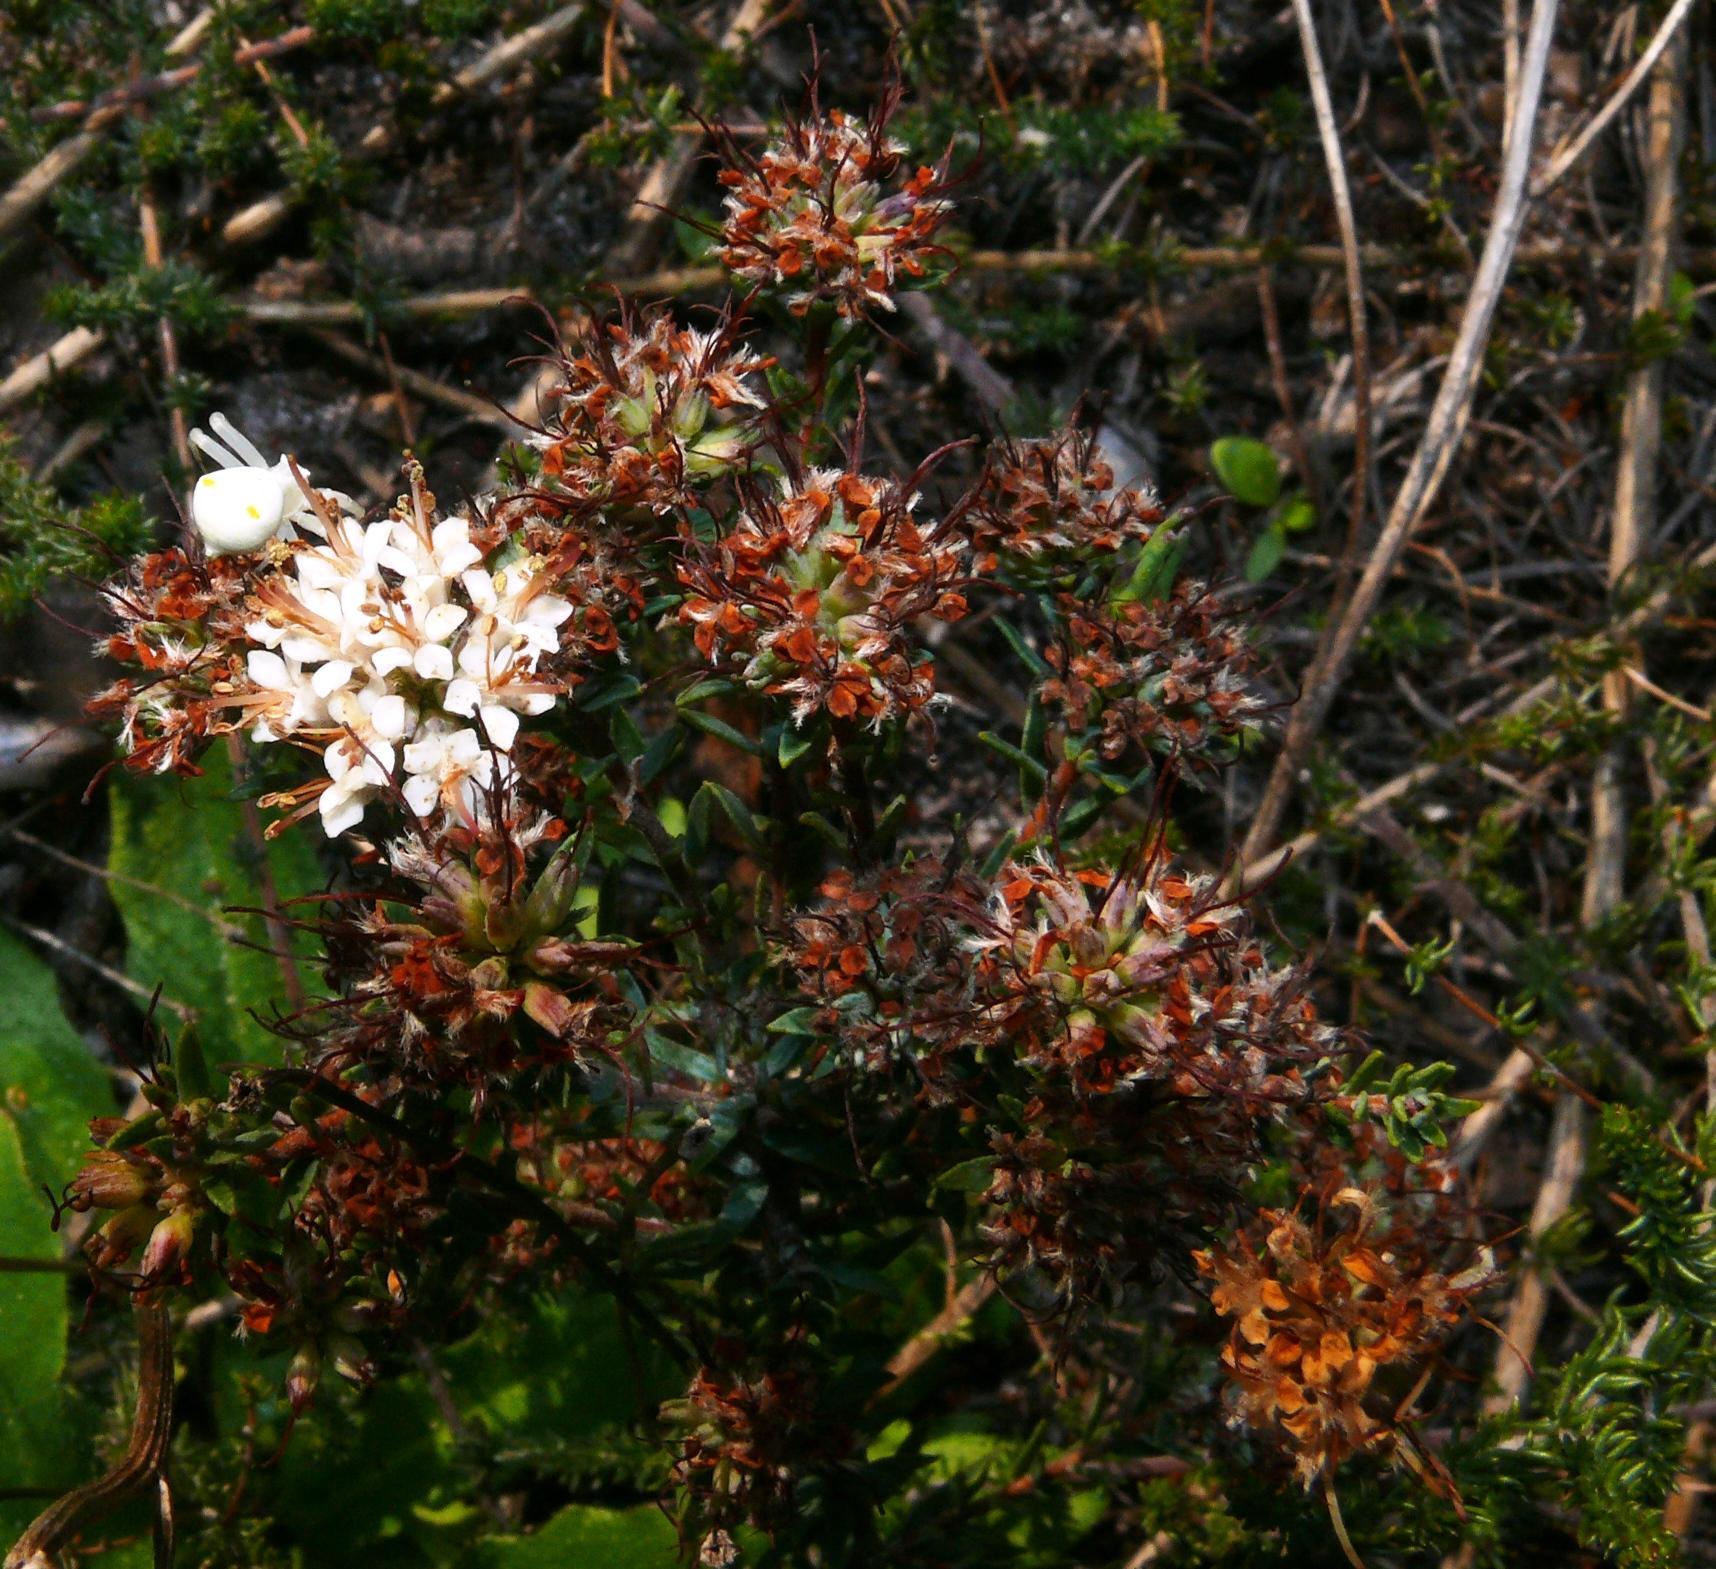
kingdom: Plantae
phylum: Tracheophyta
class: Magnoliopsida
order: Sapindales
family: Rutaceae
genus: Macrostylis
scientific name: Macrostylis villosa
